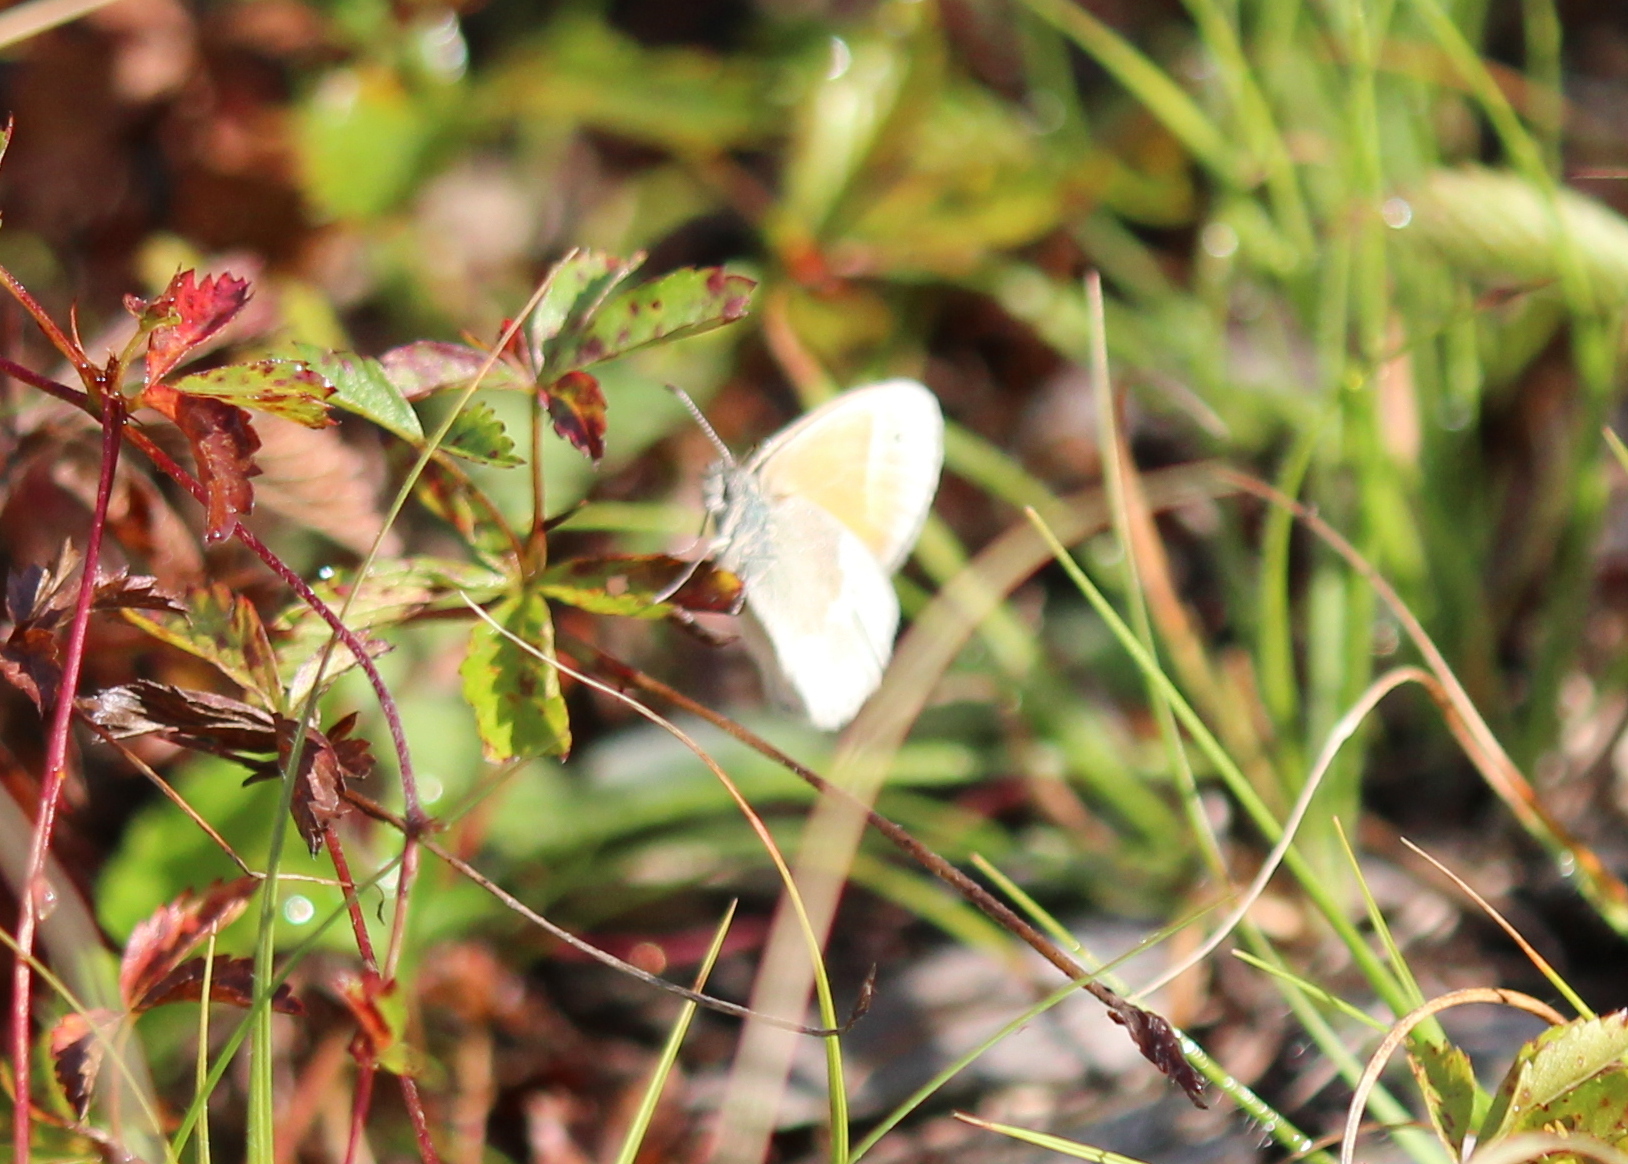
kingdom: Animalia
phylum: Arthropoda
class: Insecta
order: Lepidoptera
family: Nymphalidae
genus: Coenonympha
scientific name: Coenonympha california
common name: Common ringlet
